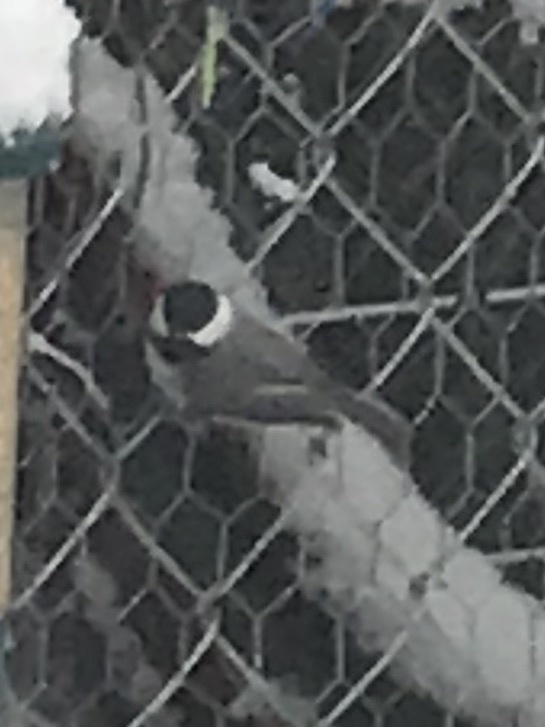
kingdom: Animalia
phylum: Chordata
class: Aves
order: Passeriformes
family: Paridae
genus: Poecile
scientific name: Poecile carolinensis
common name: Carolina chickadee
